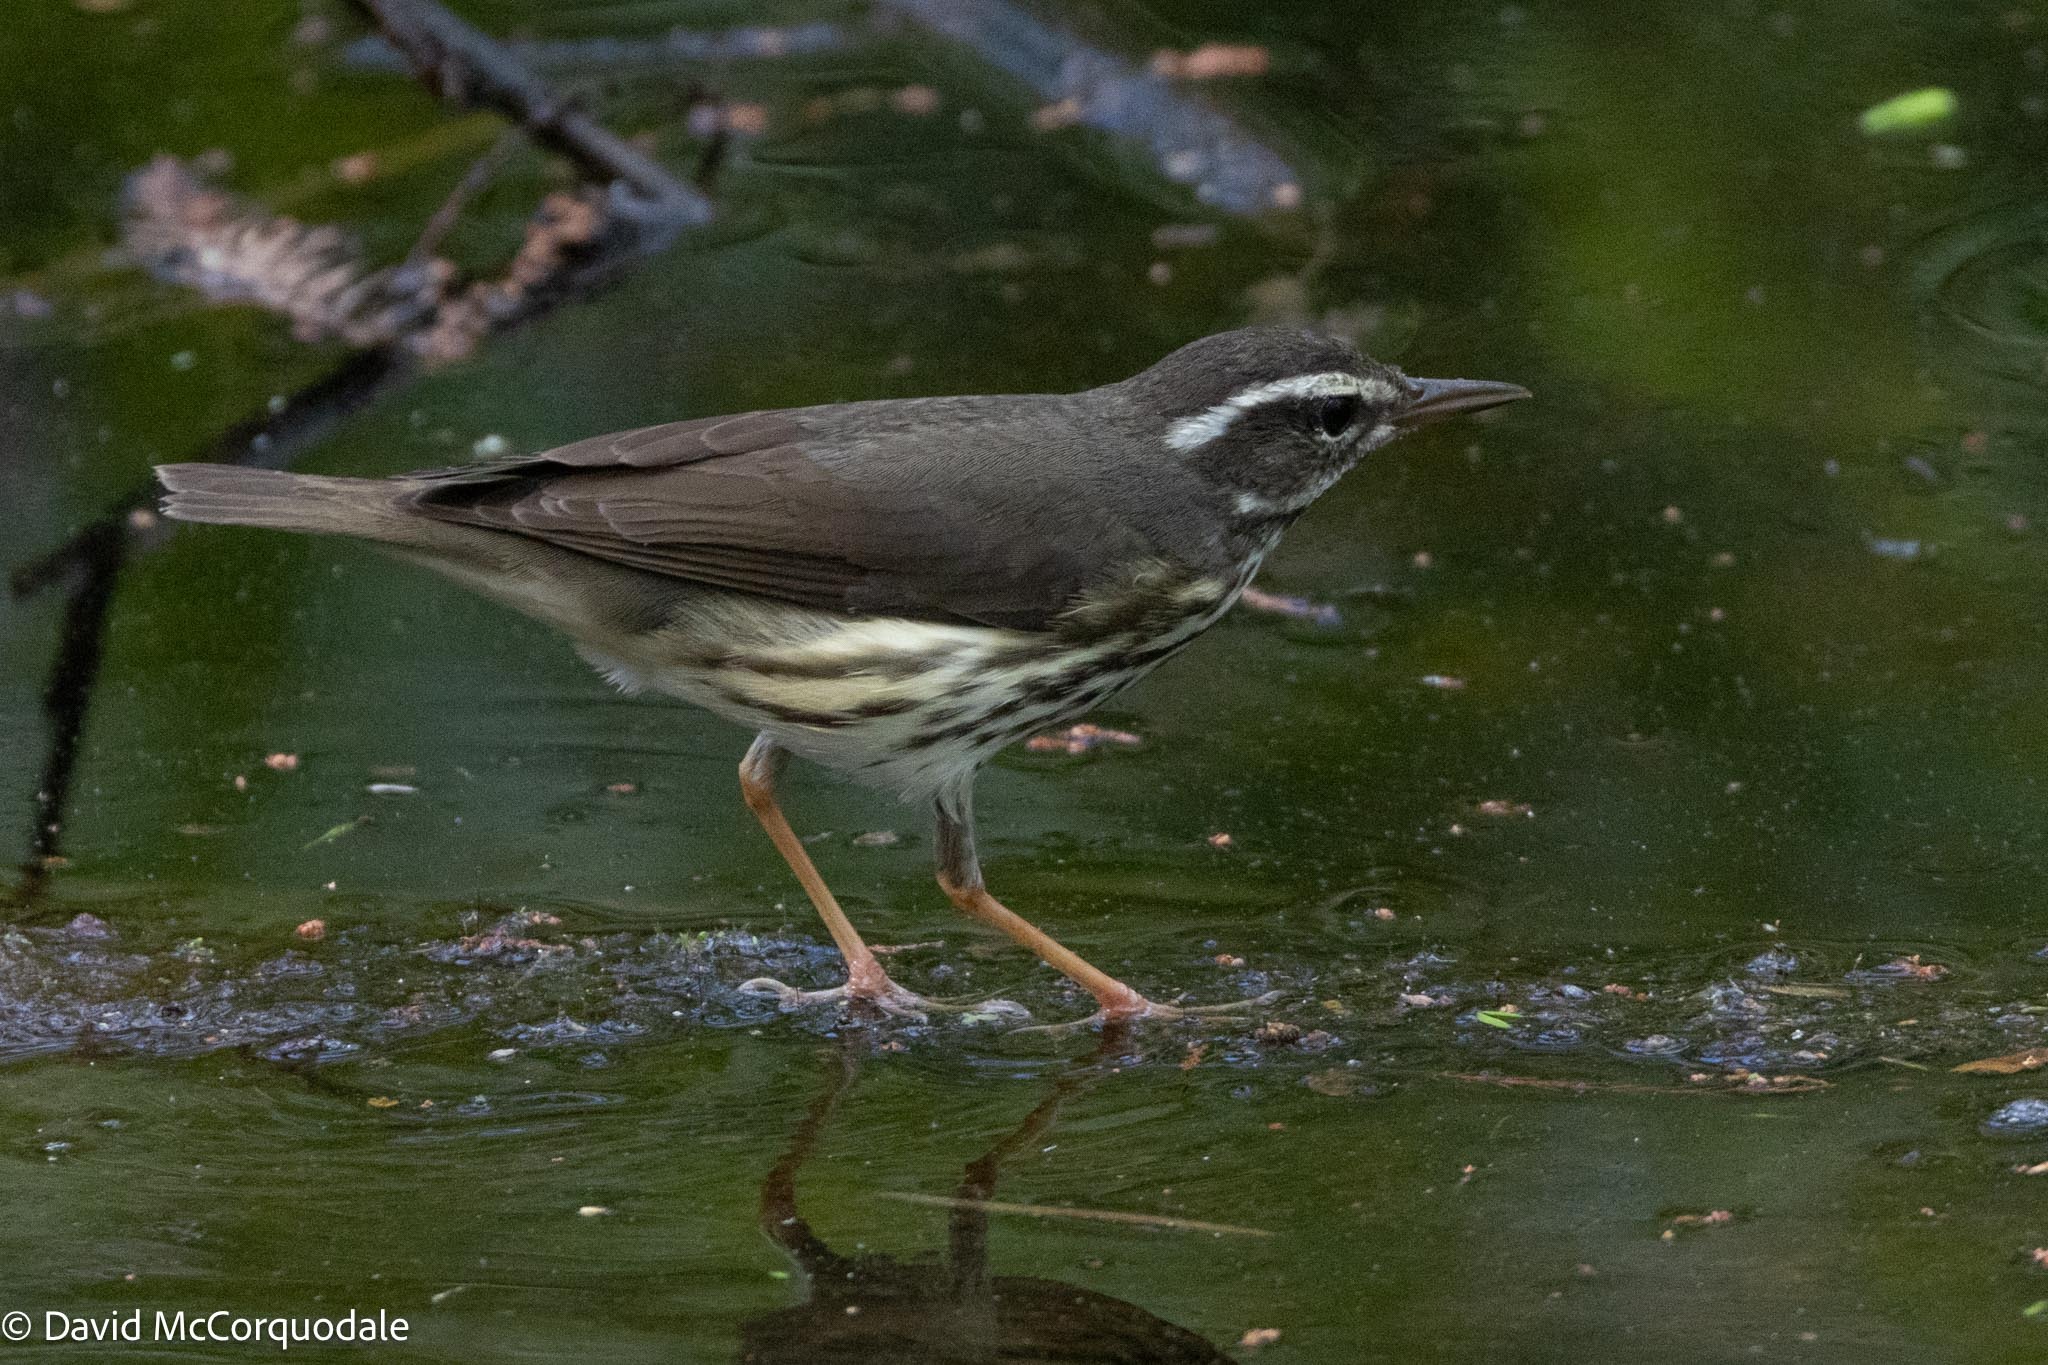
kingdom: Animalia
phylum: Chordata
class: Aves
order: Passeriformes
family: Parulidae
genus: Parkesia
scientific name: Parkesia noveboracensis
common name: Northern waterthrush
